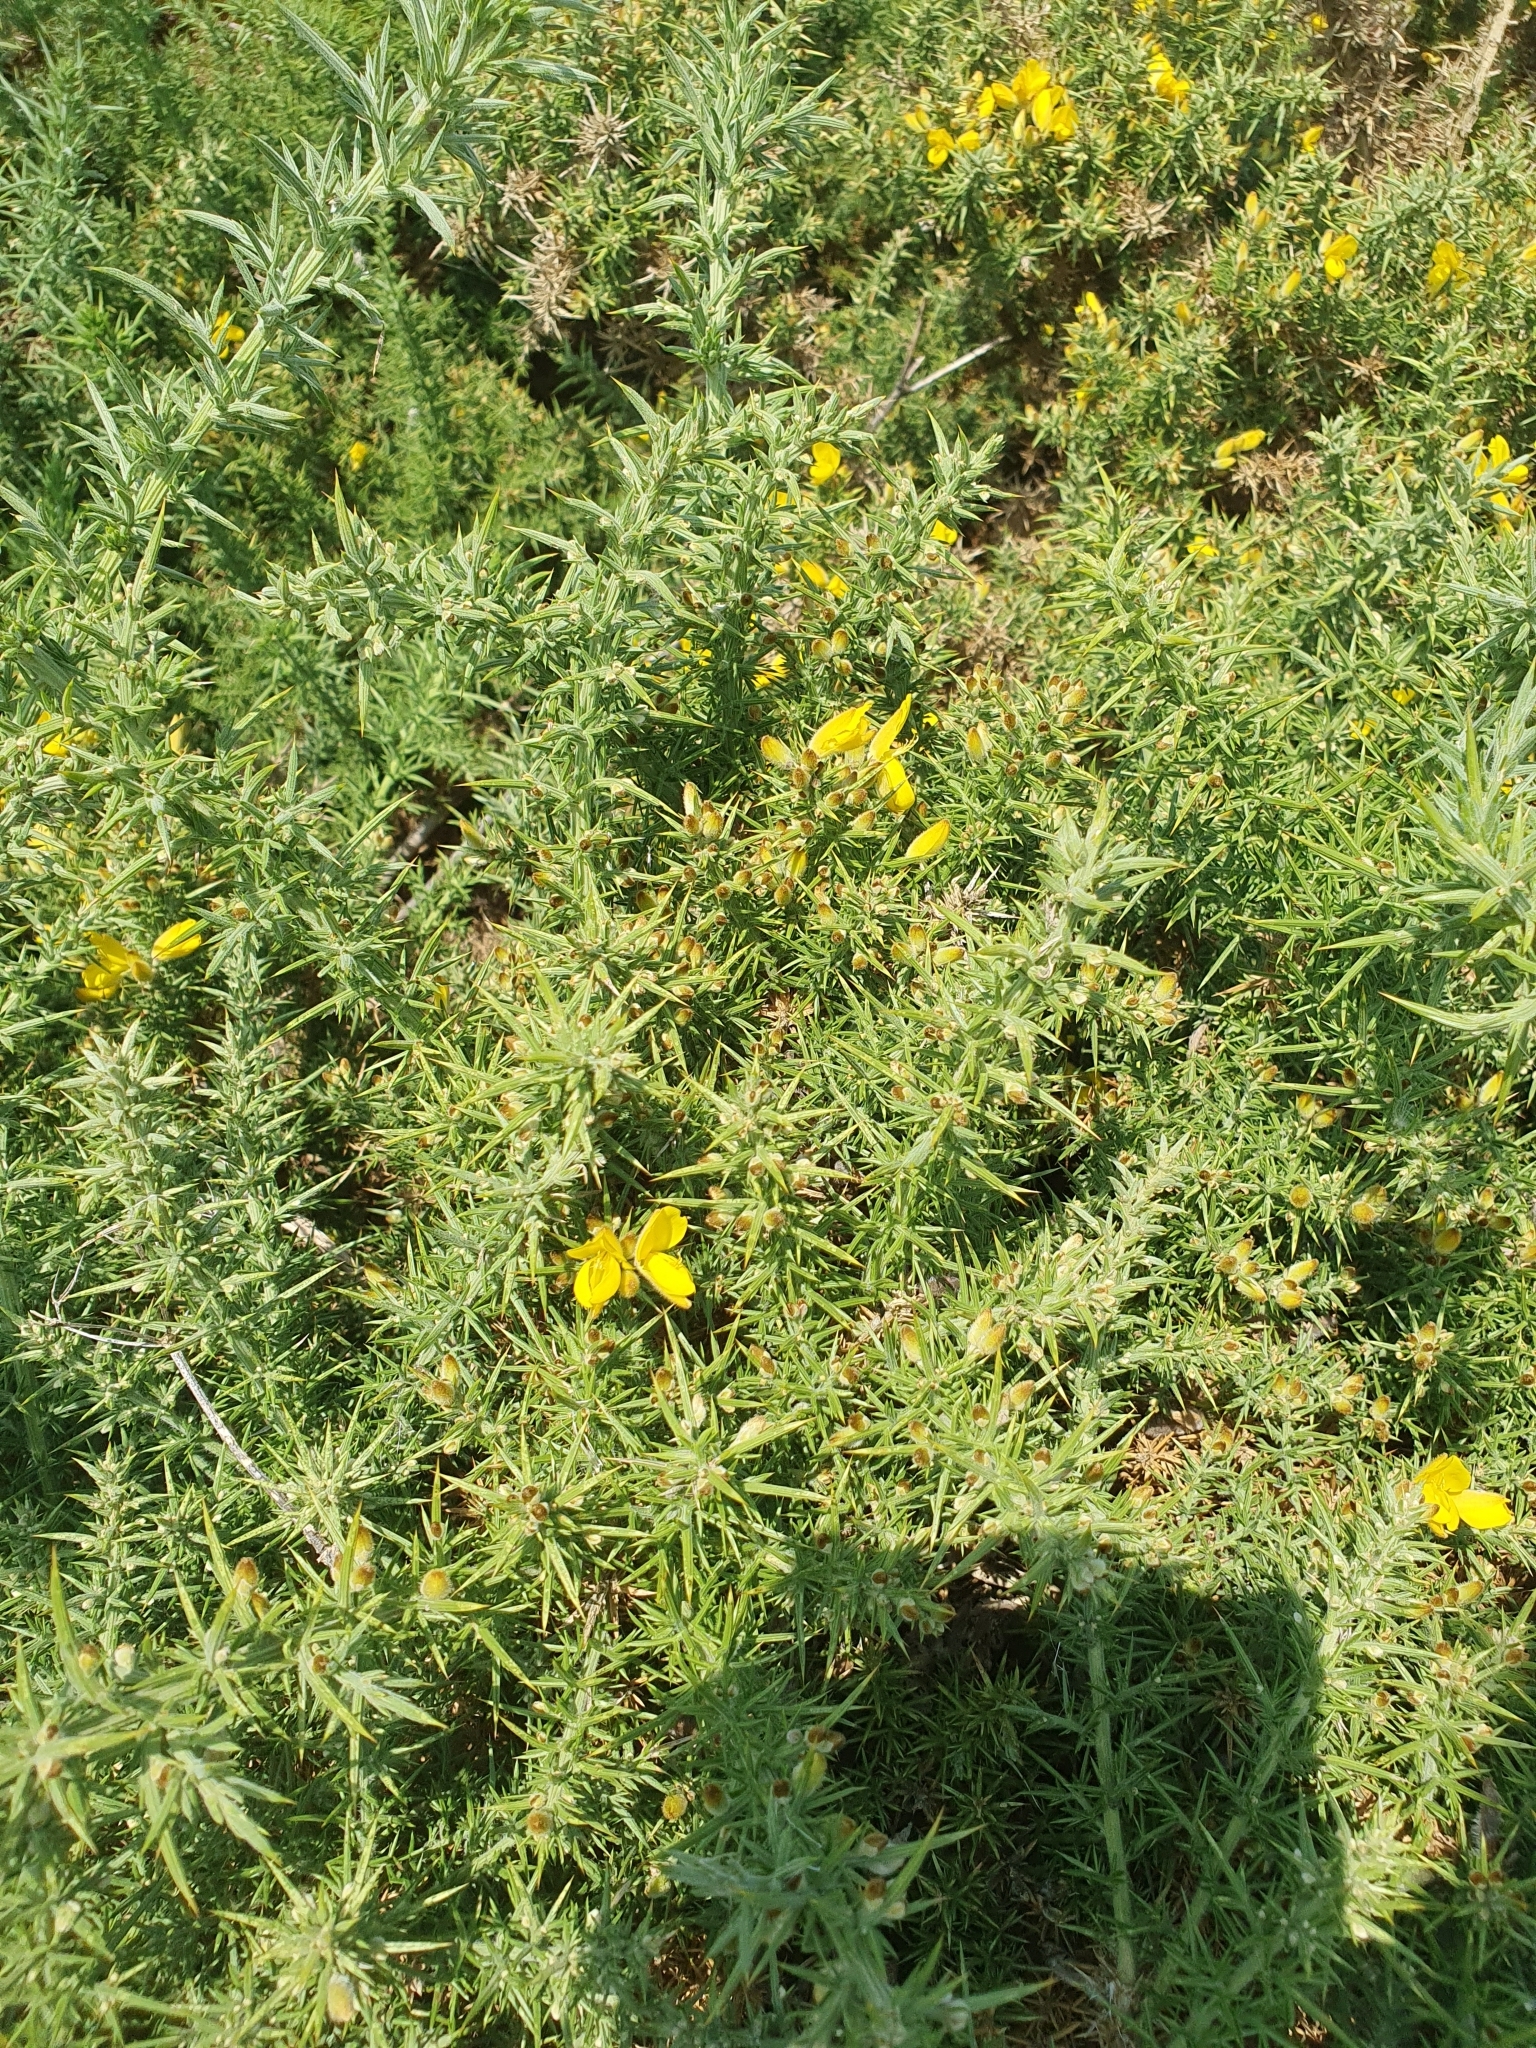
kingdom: Plantae
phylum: Tracheophyta
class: Magnoliopsida
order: Fabales
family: Fabaceae
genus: Ulex
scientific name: Ulex europaeus
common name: Common gorse
